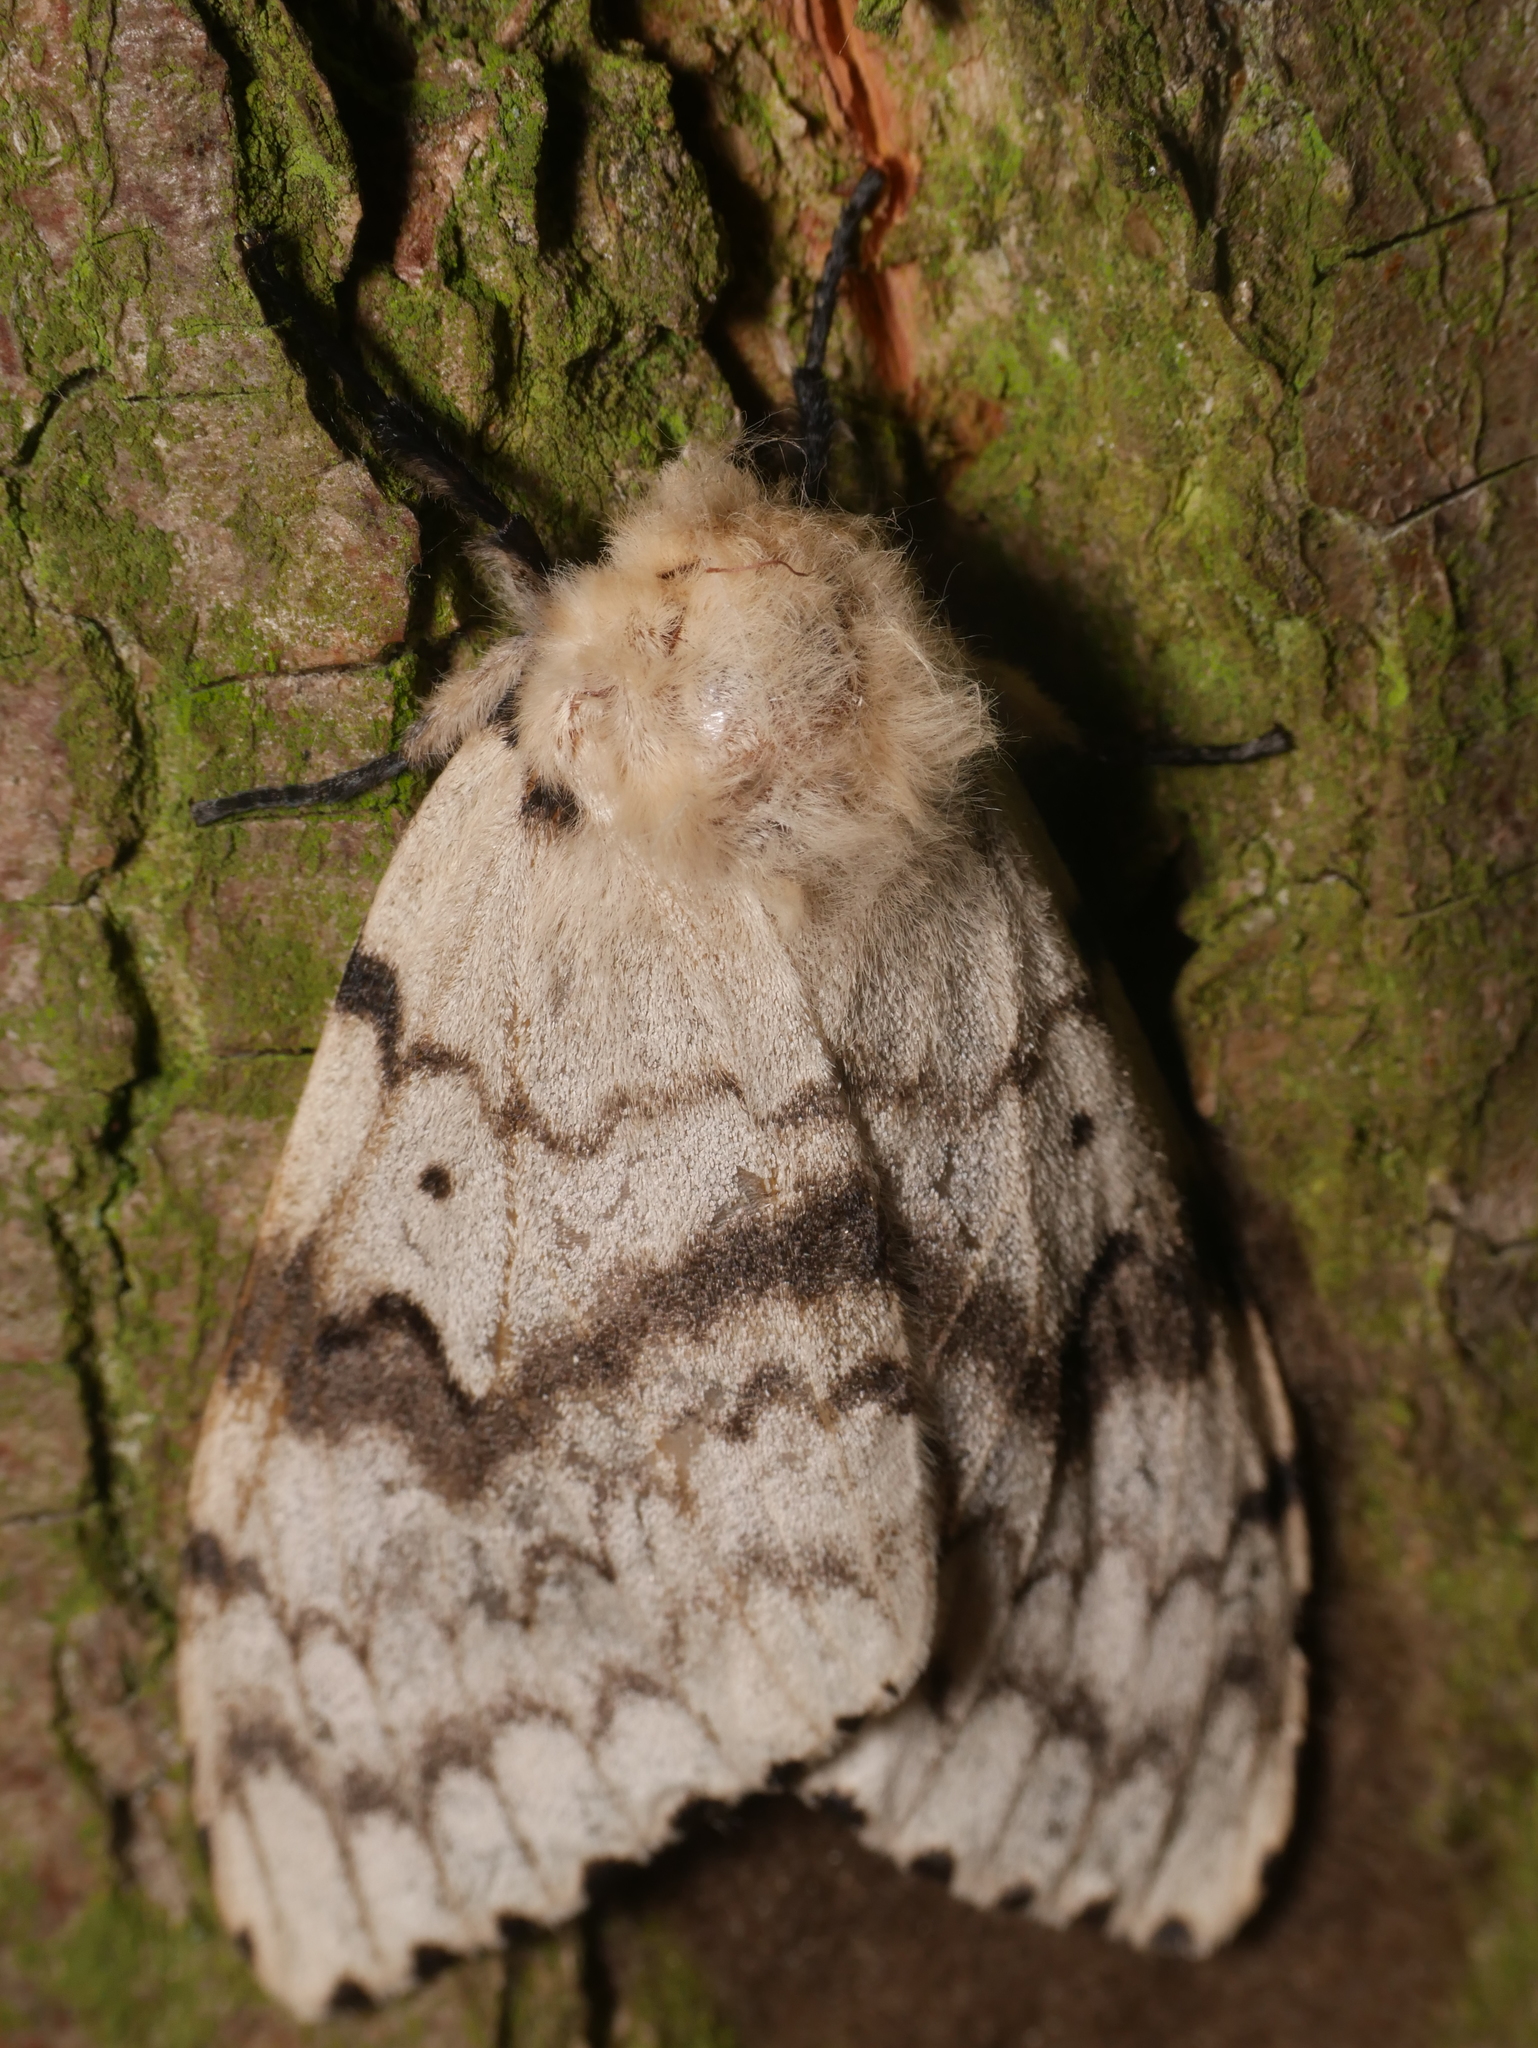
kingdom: Animalia
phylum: Arthropoda
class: Insecta
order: Lepidoptera
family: Erebidae
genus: Lymantria
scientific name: Lymantria dispar
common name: Gypsy moth
